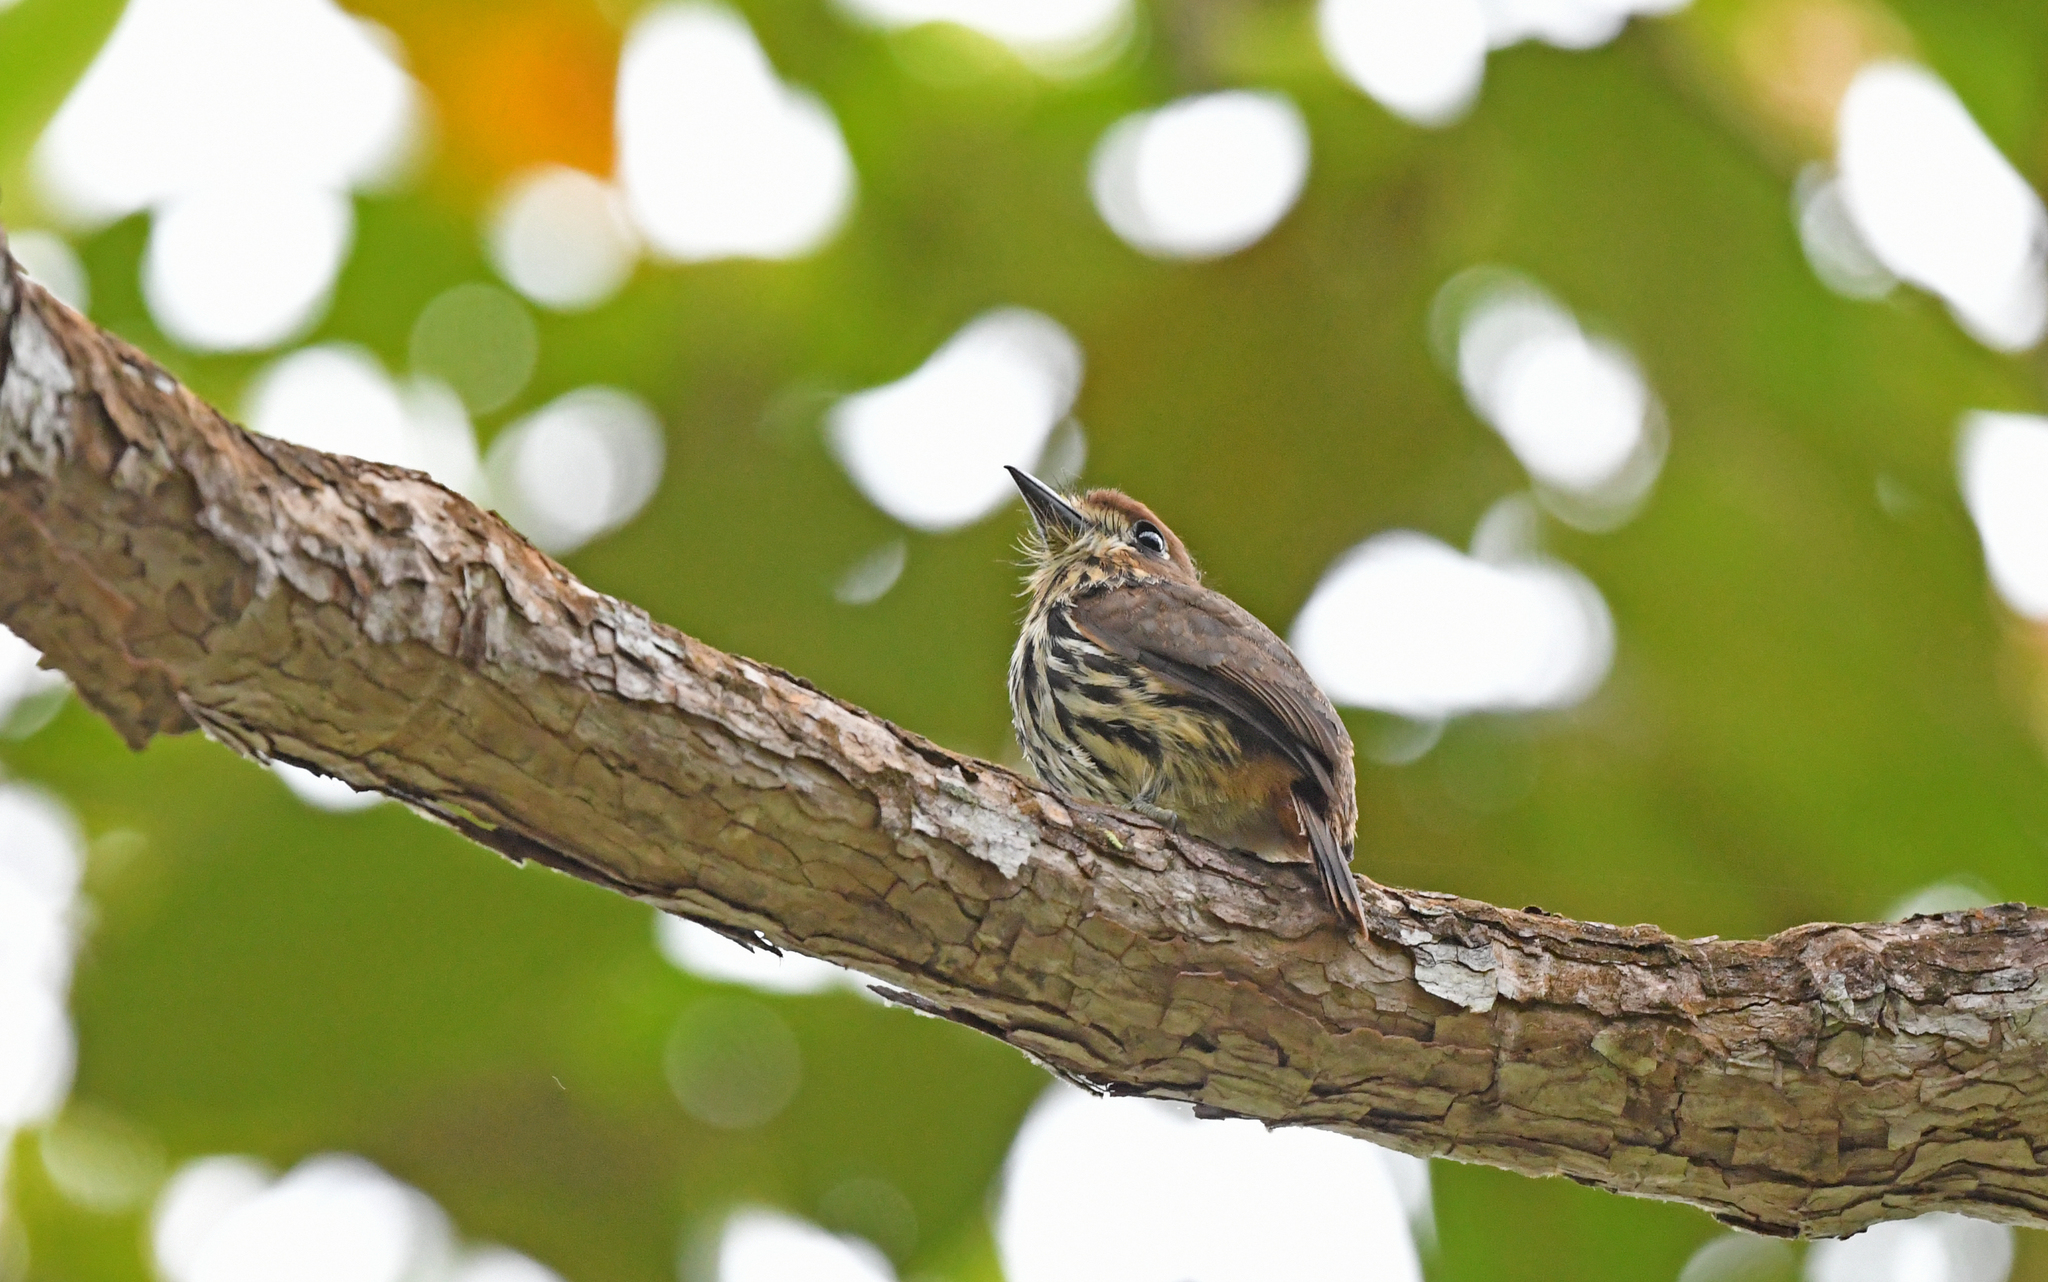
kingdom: Animalia
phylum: Chordata
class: Aves
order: Piciformes
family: Bucconidae
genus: Micromonacha
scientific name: Micromonacha lanceolata
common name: Lanceolated monklet
